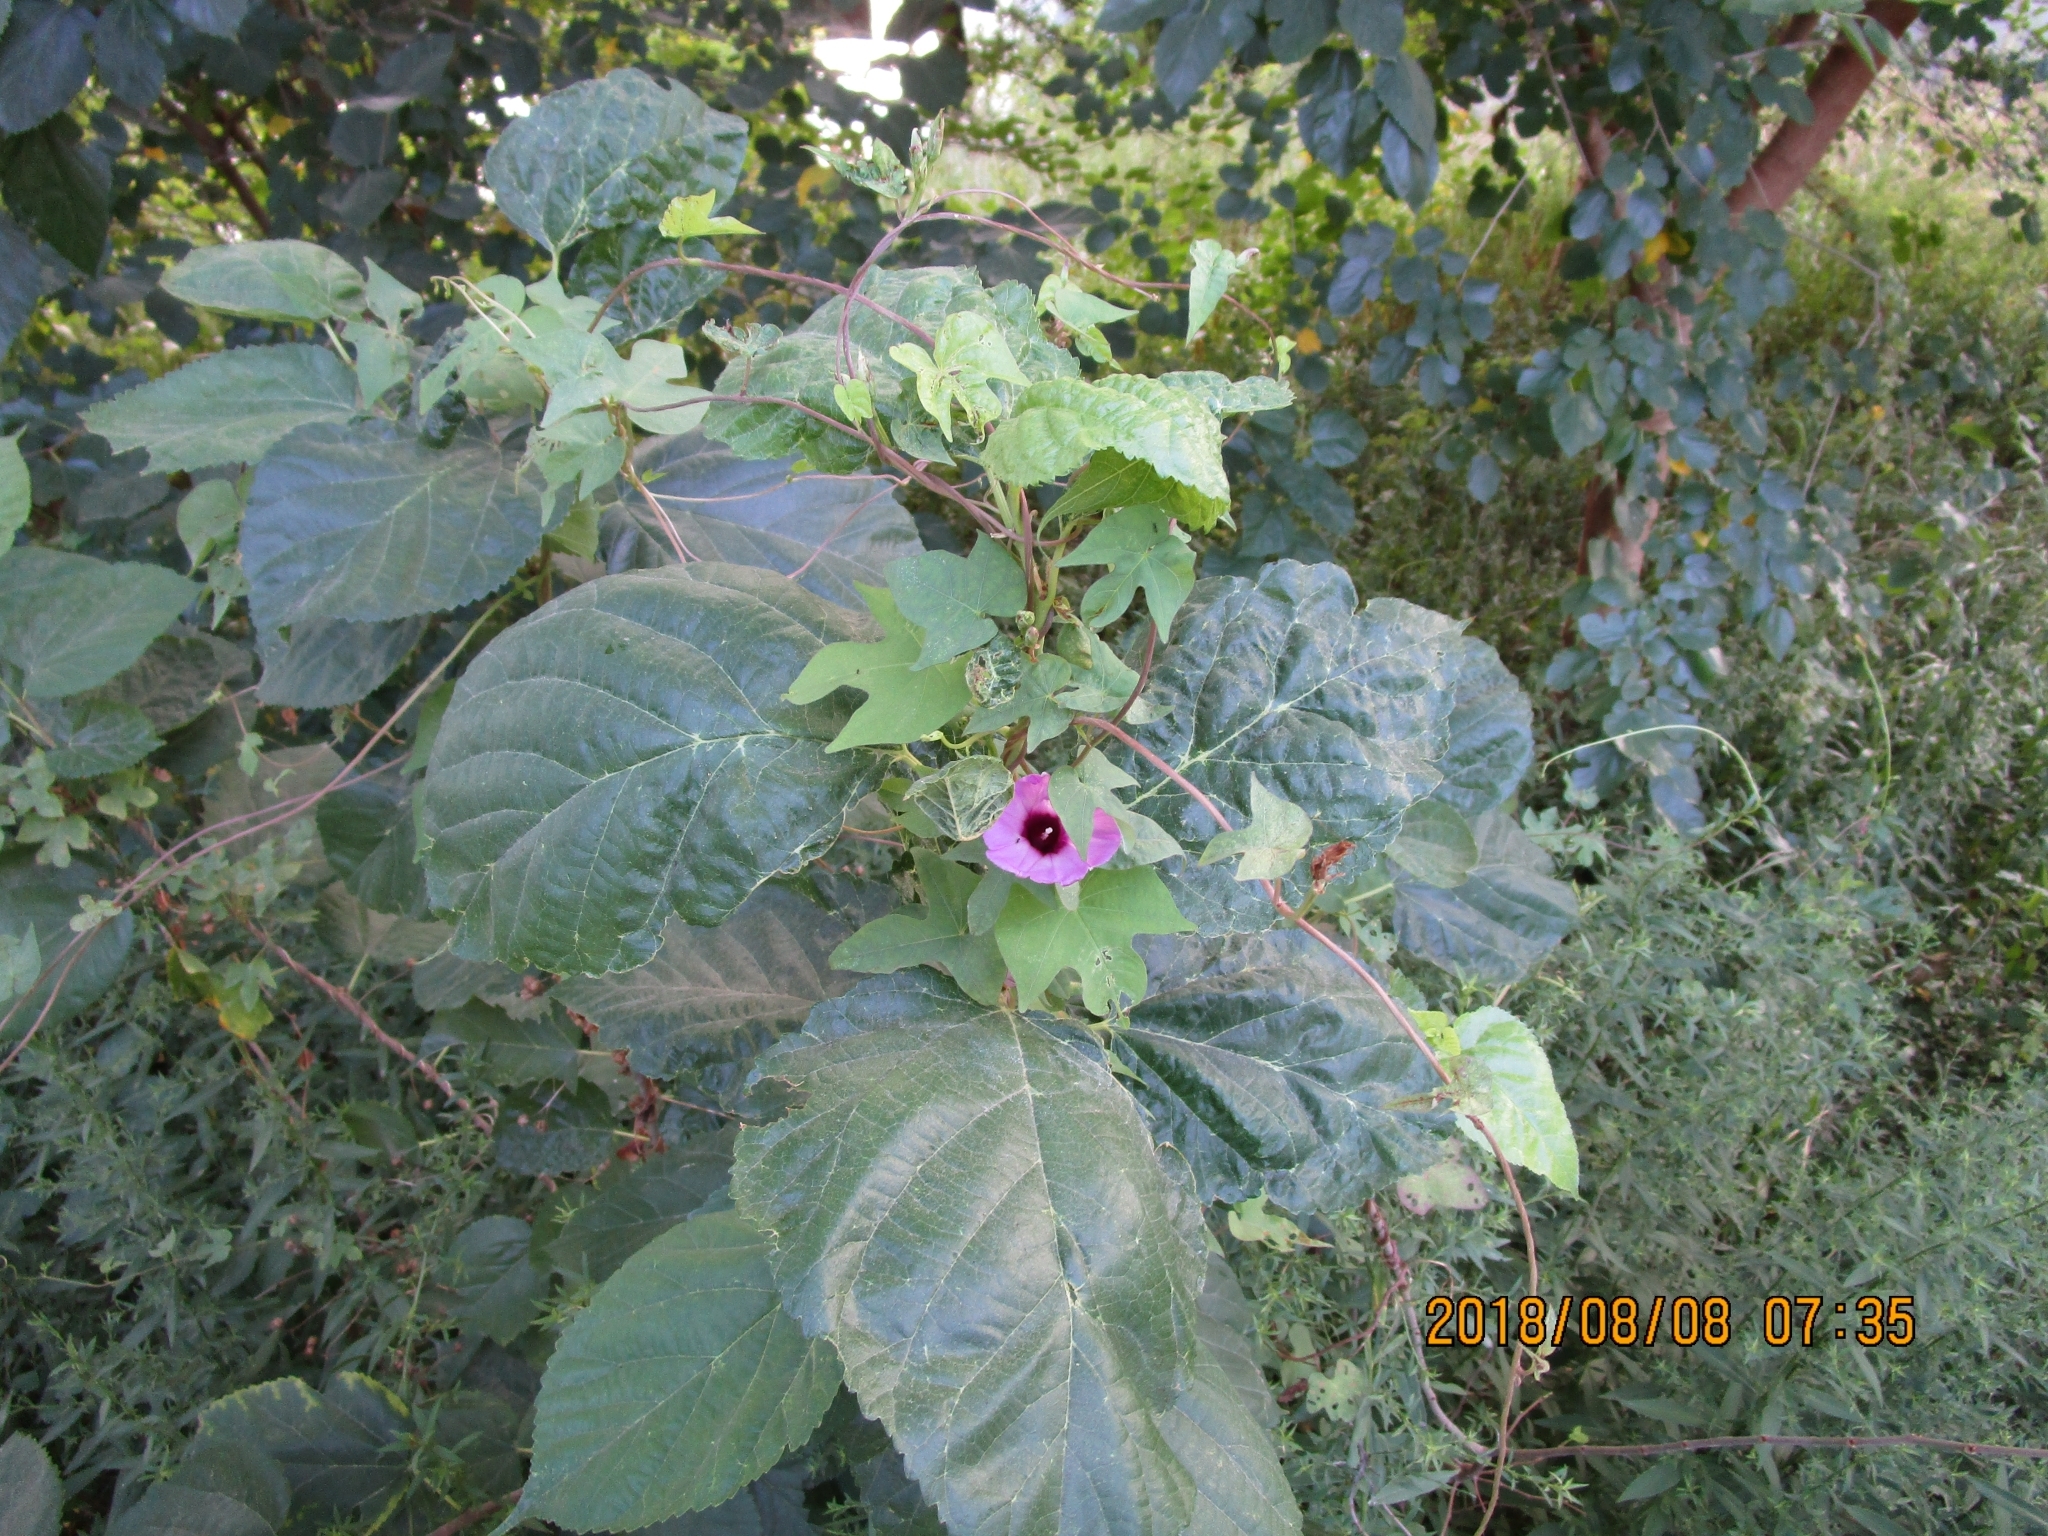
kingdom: Plantae
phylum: Tracheophyta
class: Magnoliopsida
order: Solanales
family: Convolvulaceae
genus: Ipomoea
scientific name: Ipomoea cordatotriloba
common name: Cotton morning glory
